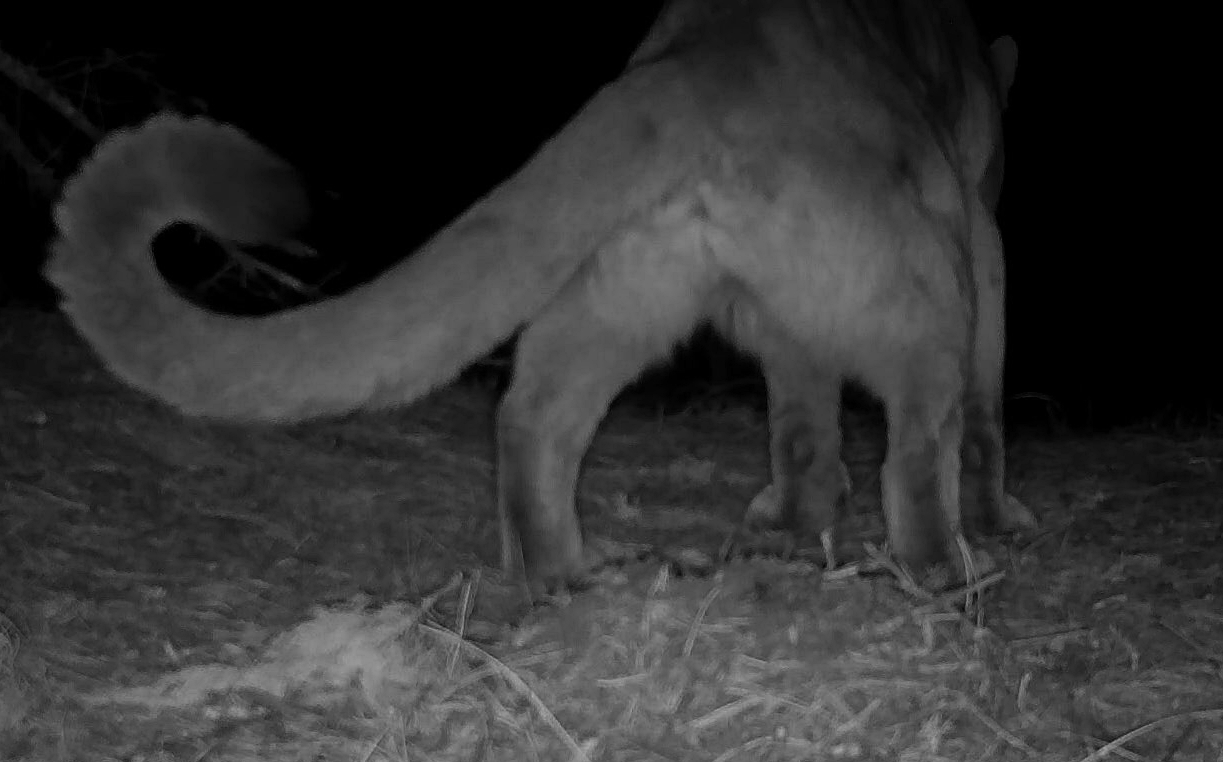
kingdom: Animalia
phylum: Chordata
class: Mammalia
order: Carnivora
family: Felidae
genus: Puma
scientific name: Puma concolor
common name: Puma
